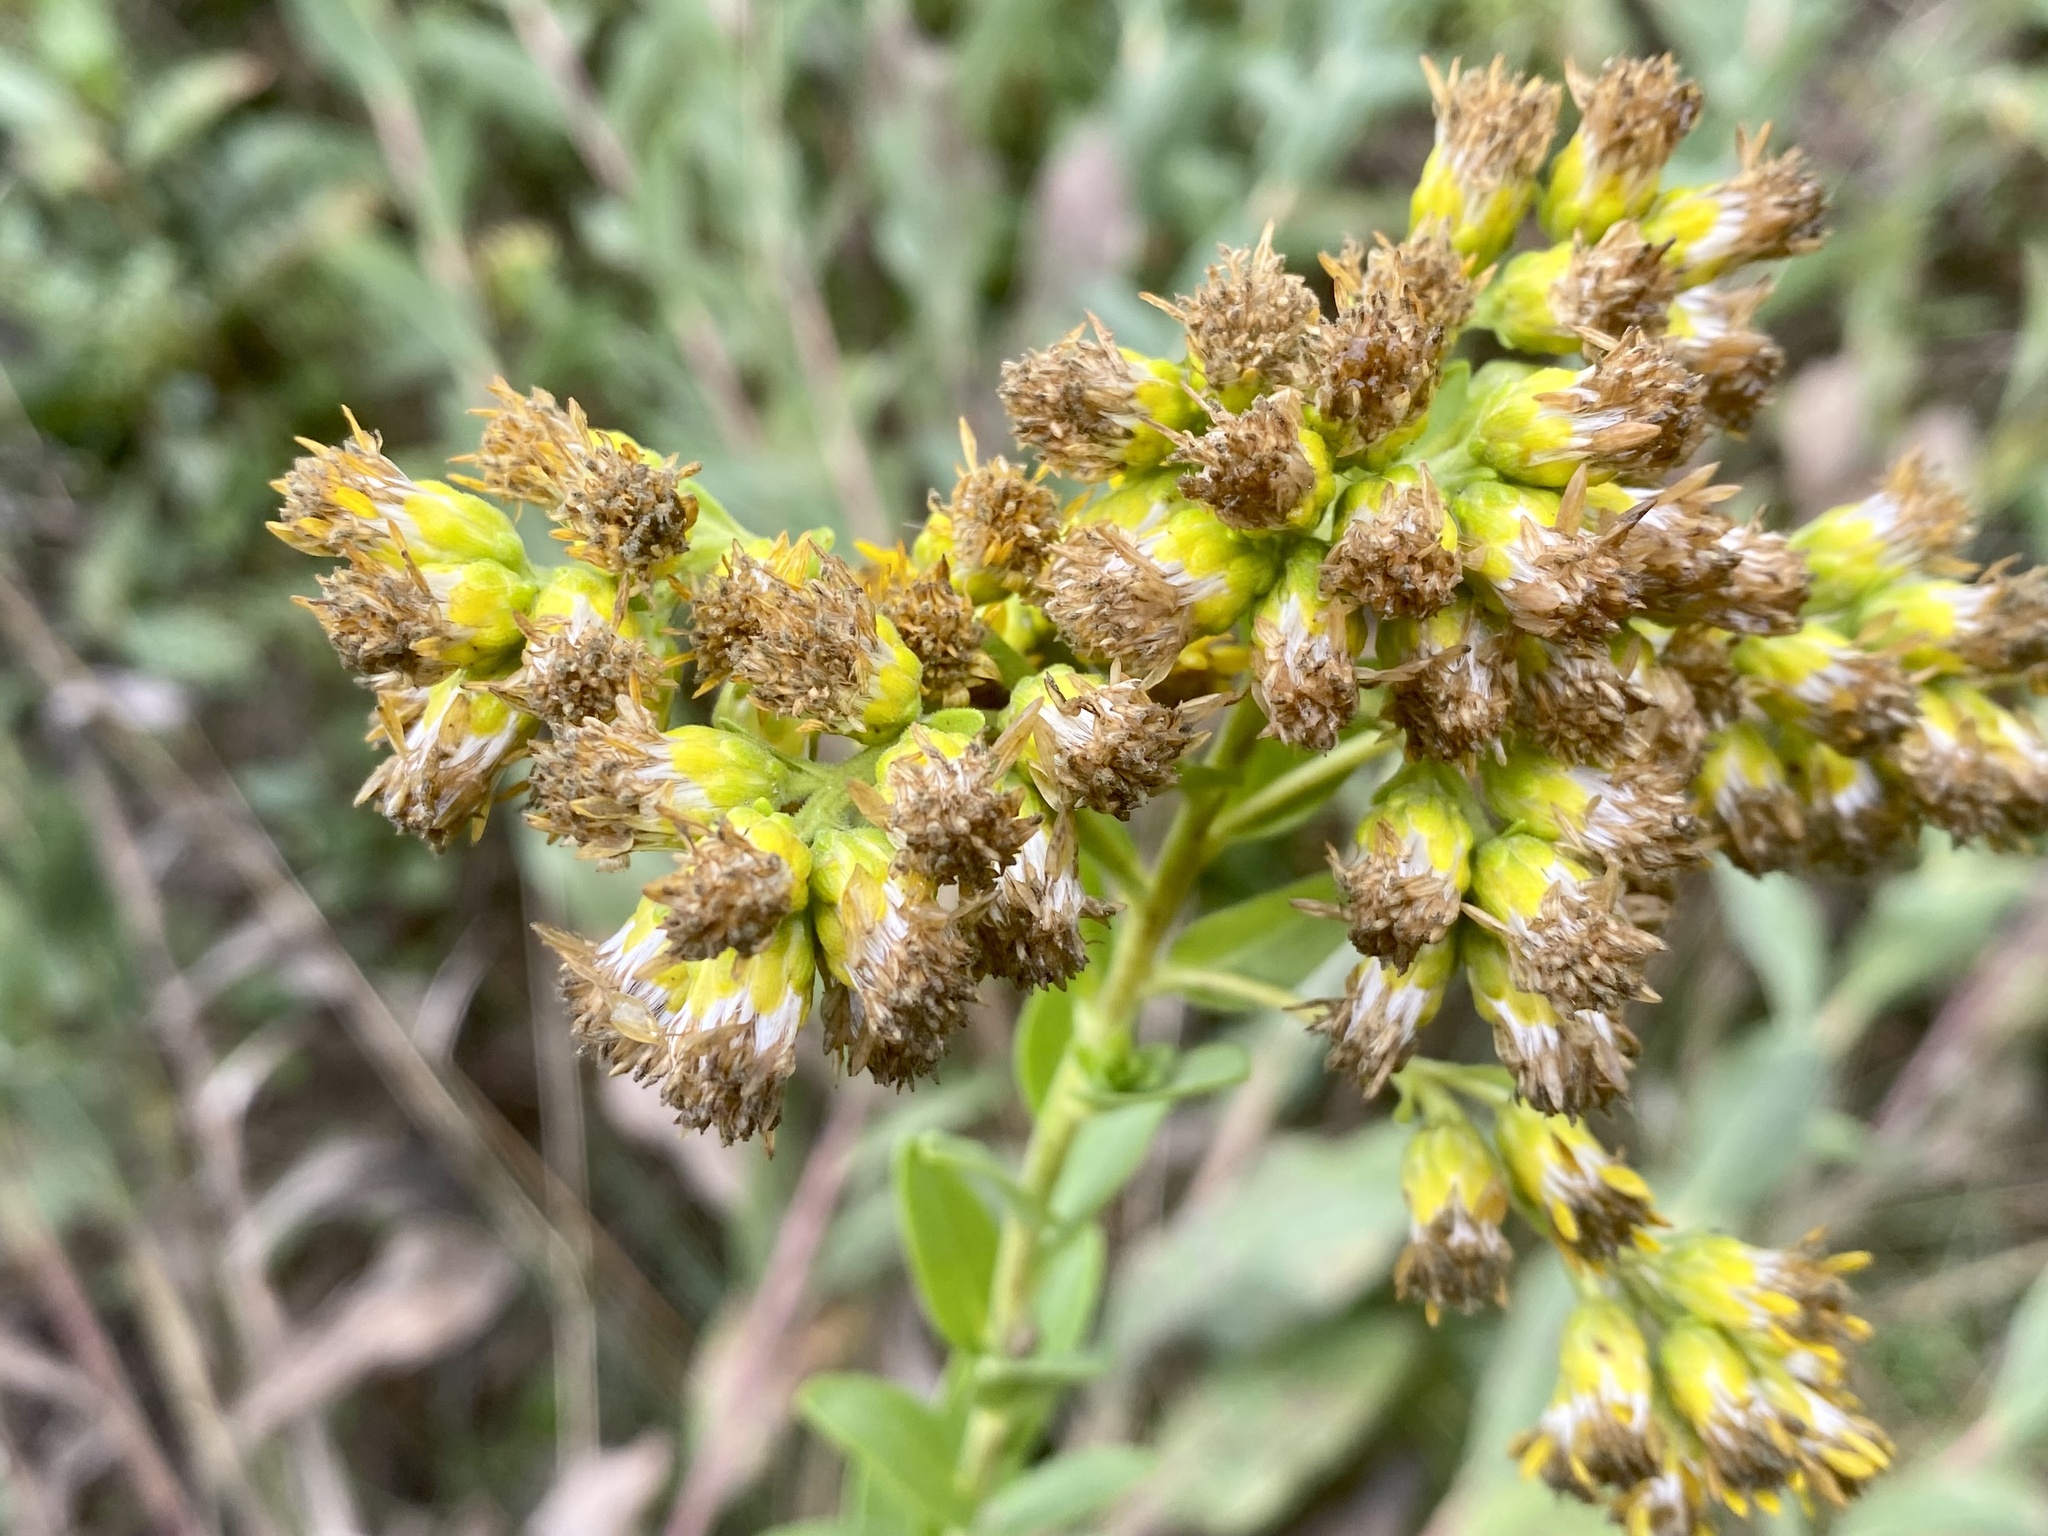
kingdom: Plantae
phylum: Tracheophyta
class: Magnoliopsida
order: Asterales
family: Asteraceae
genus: Solidago
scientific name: Solidago rigida
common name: Rigid goldenrod
